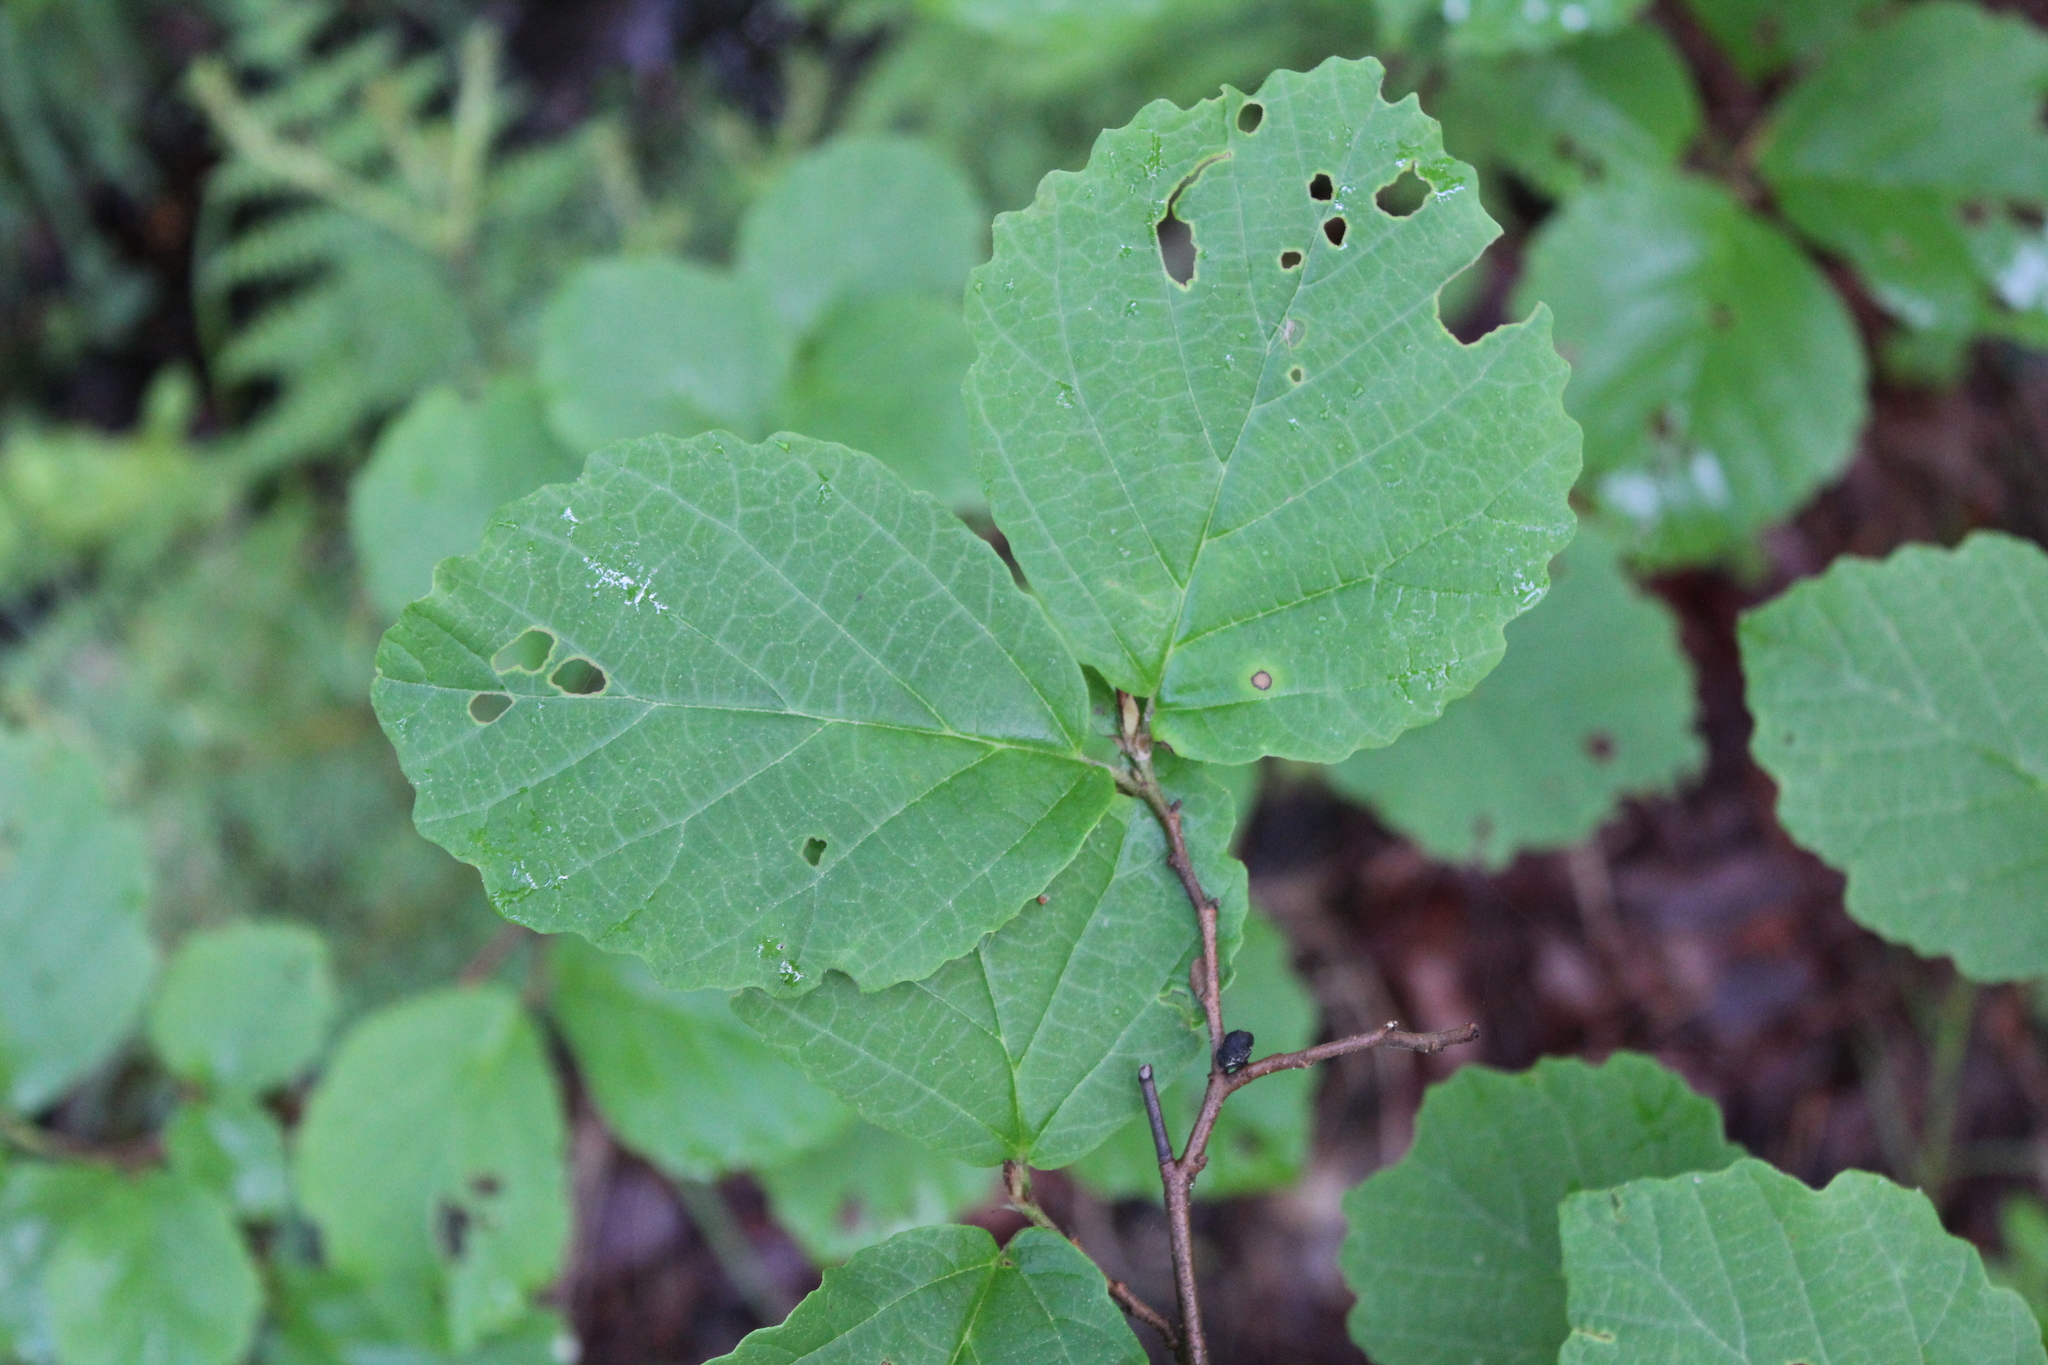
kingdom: Plantae
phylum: Tracheophyta
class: Magnoliopsida
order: Saxifragales
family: Hamamelidaceae
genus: Hamamelis
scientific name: Hamamelis virginiana
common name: Witch-hazel
